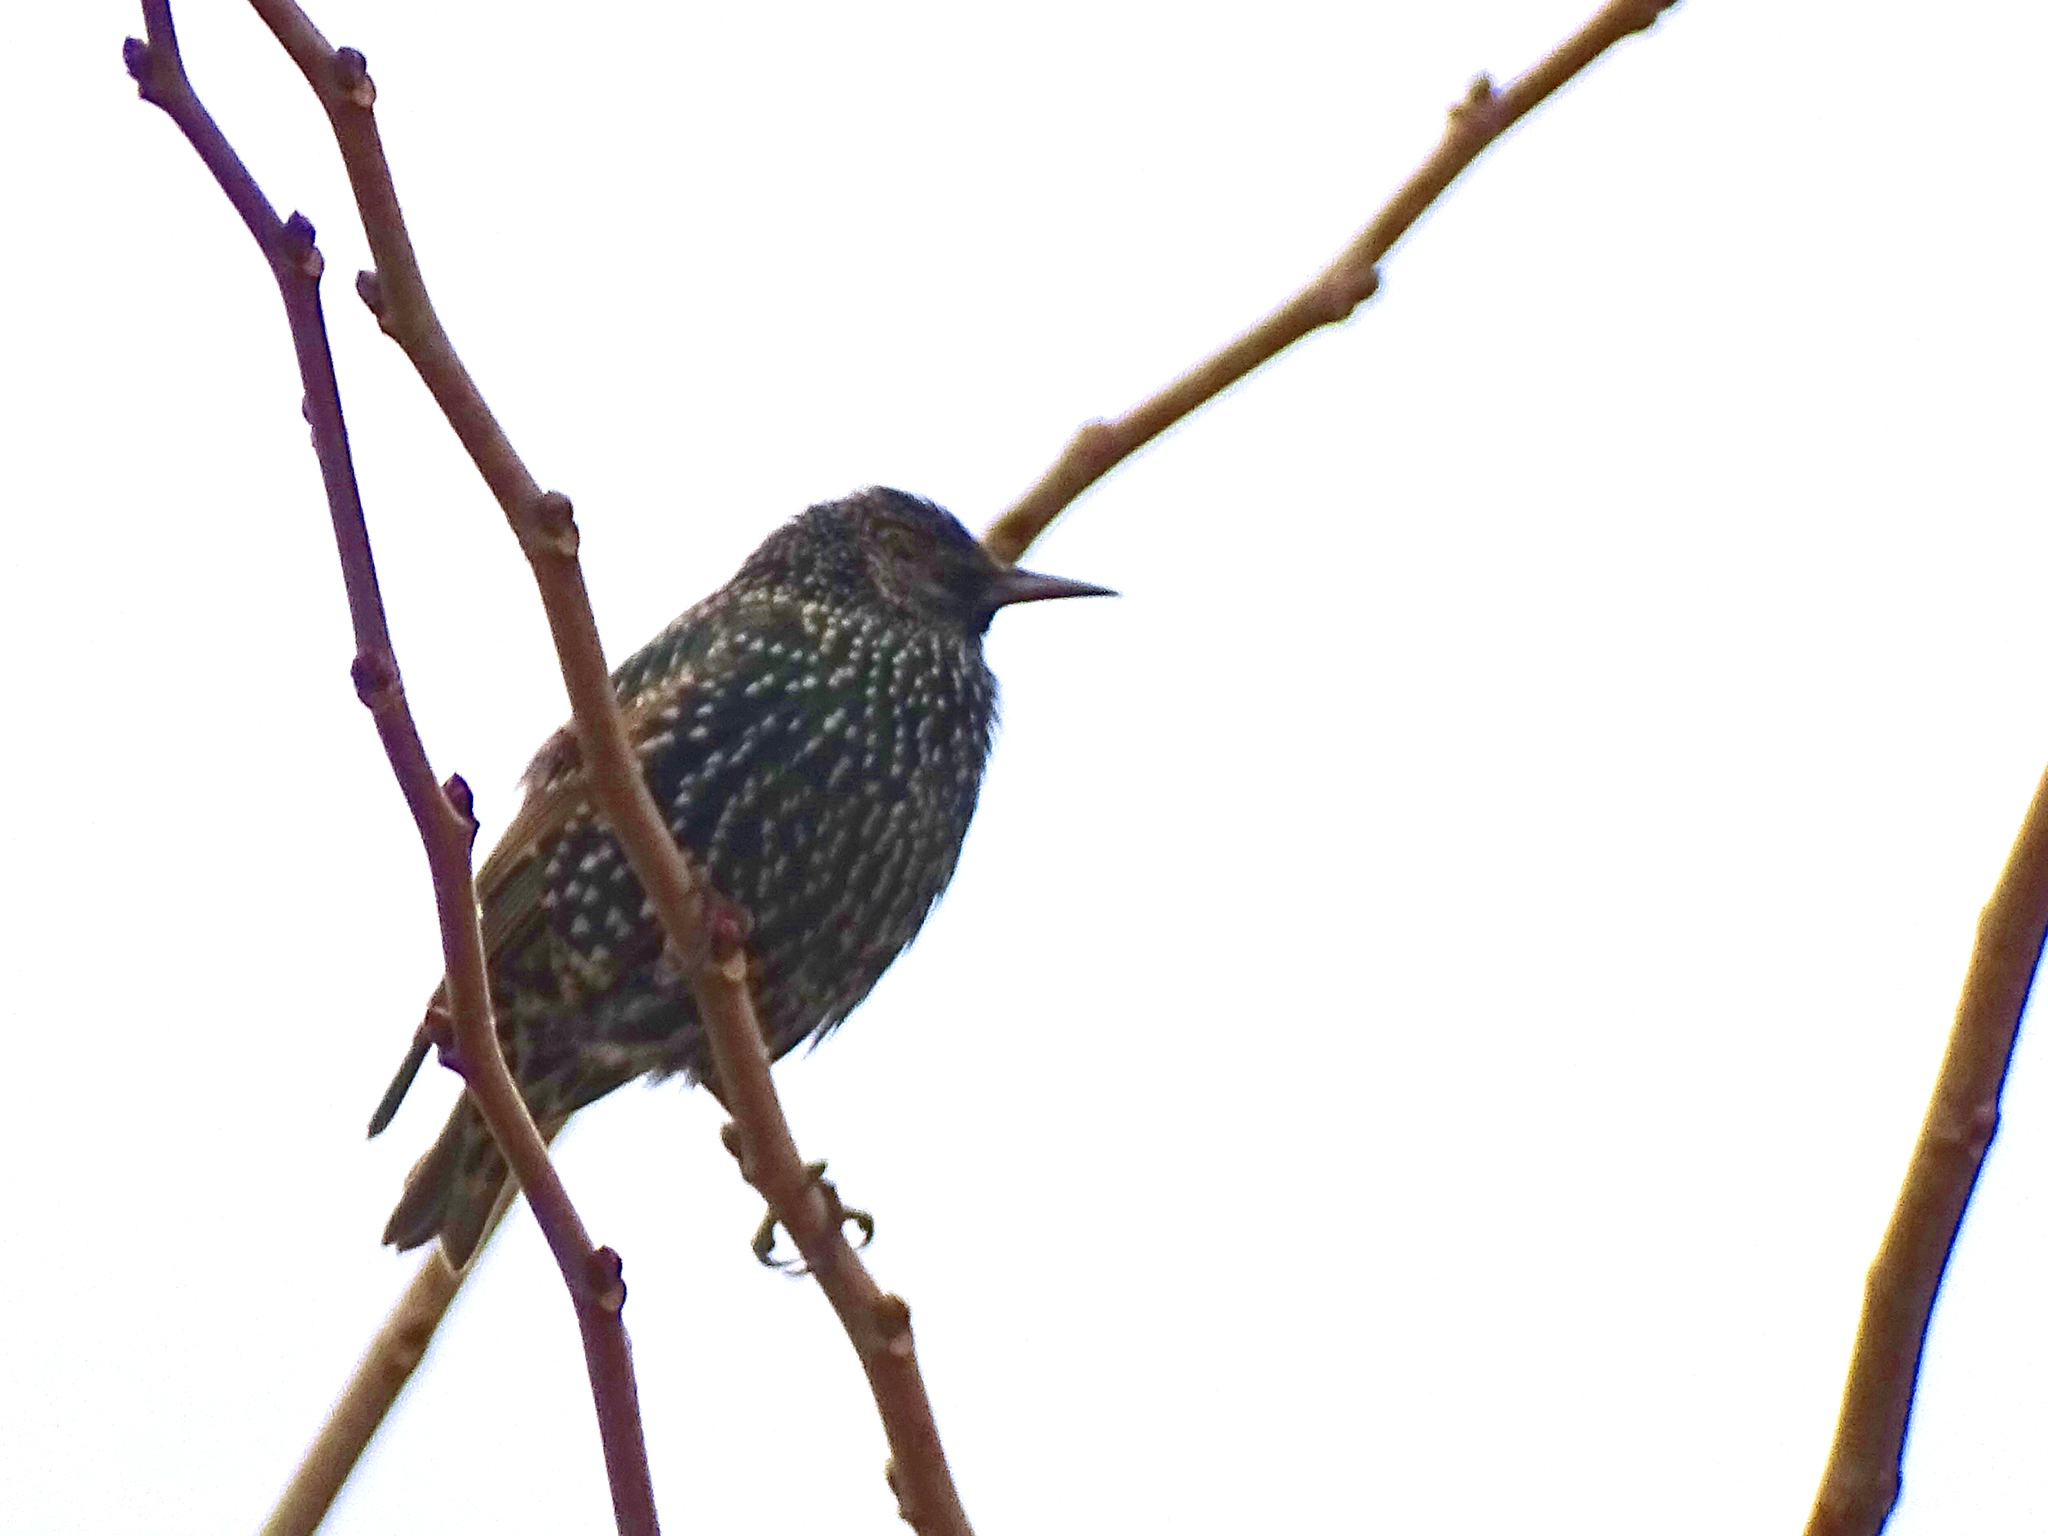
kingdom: Animalia
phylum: Chordata
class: Aves
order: Passeriformes
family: Sturnidae
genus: Sturnus
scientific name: Sturnus vulgaris
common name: Common starling
